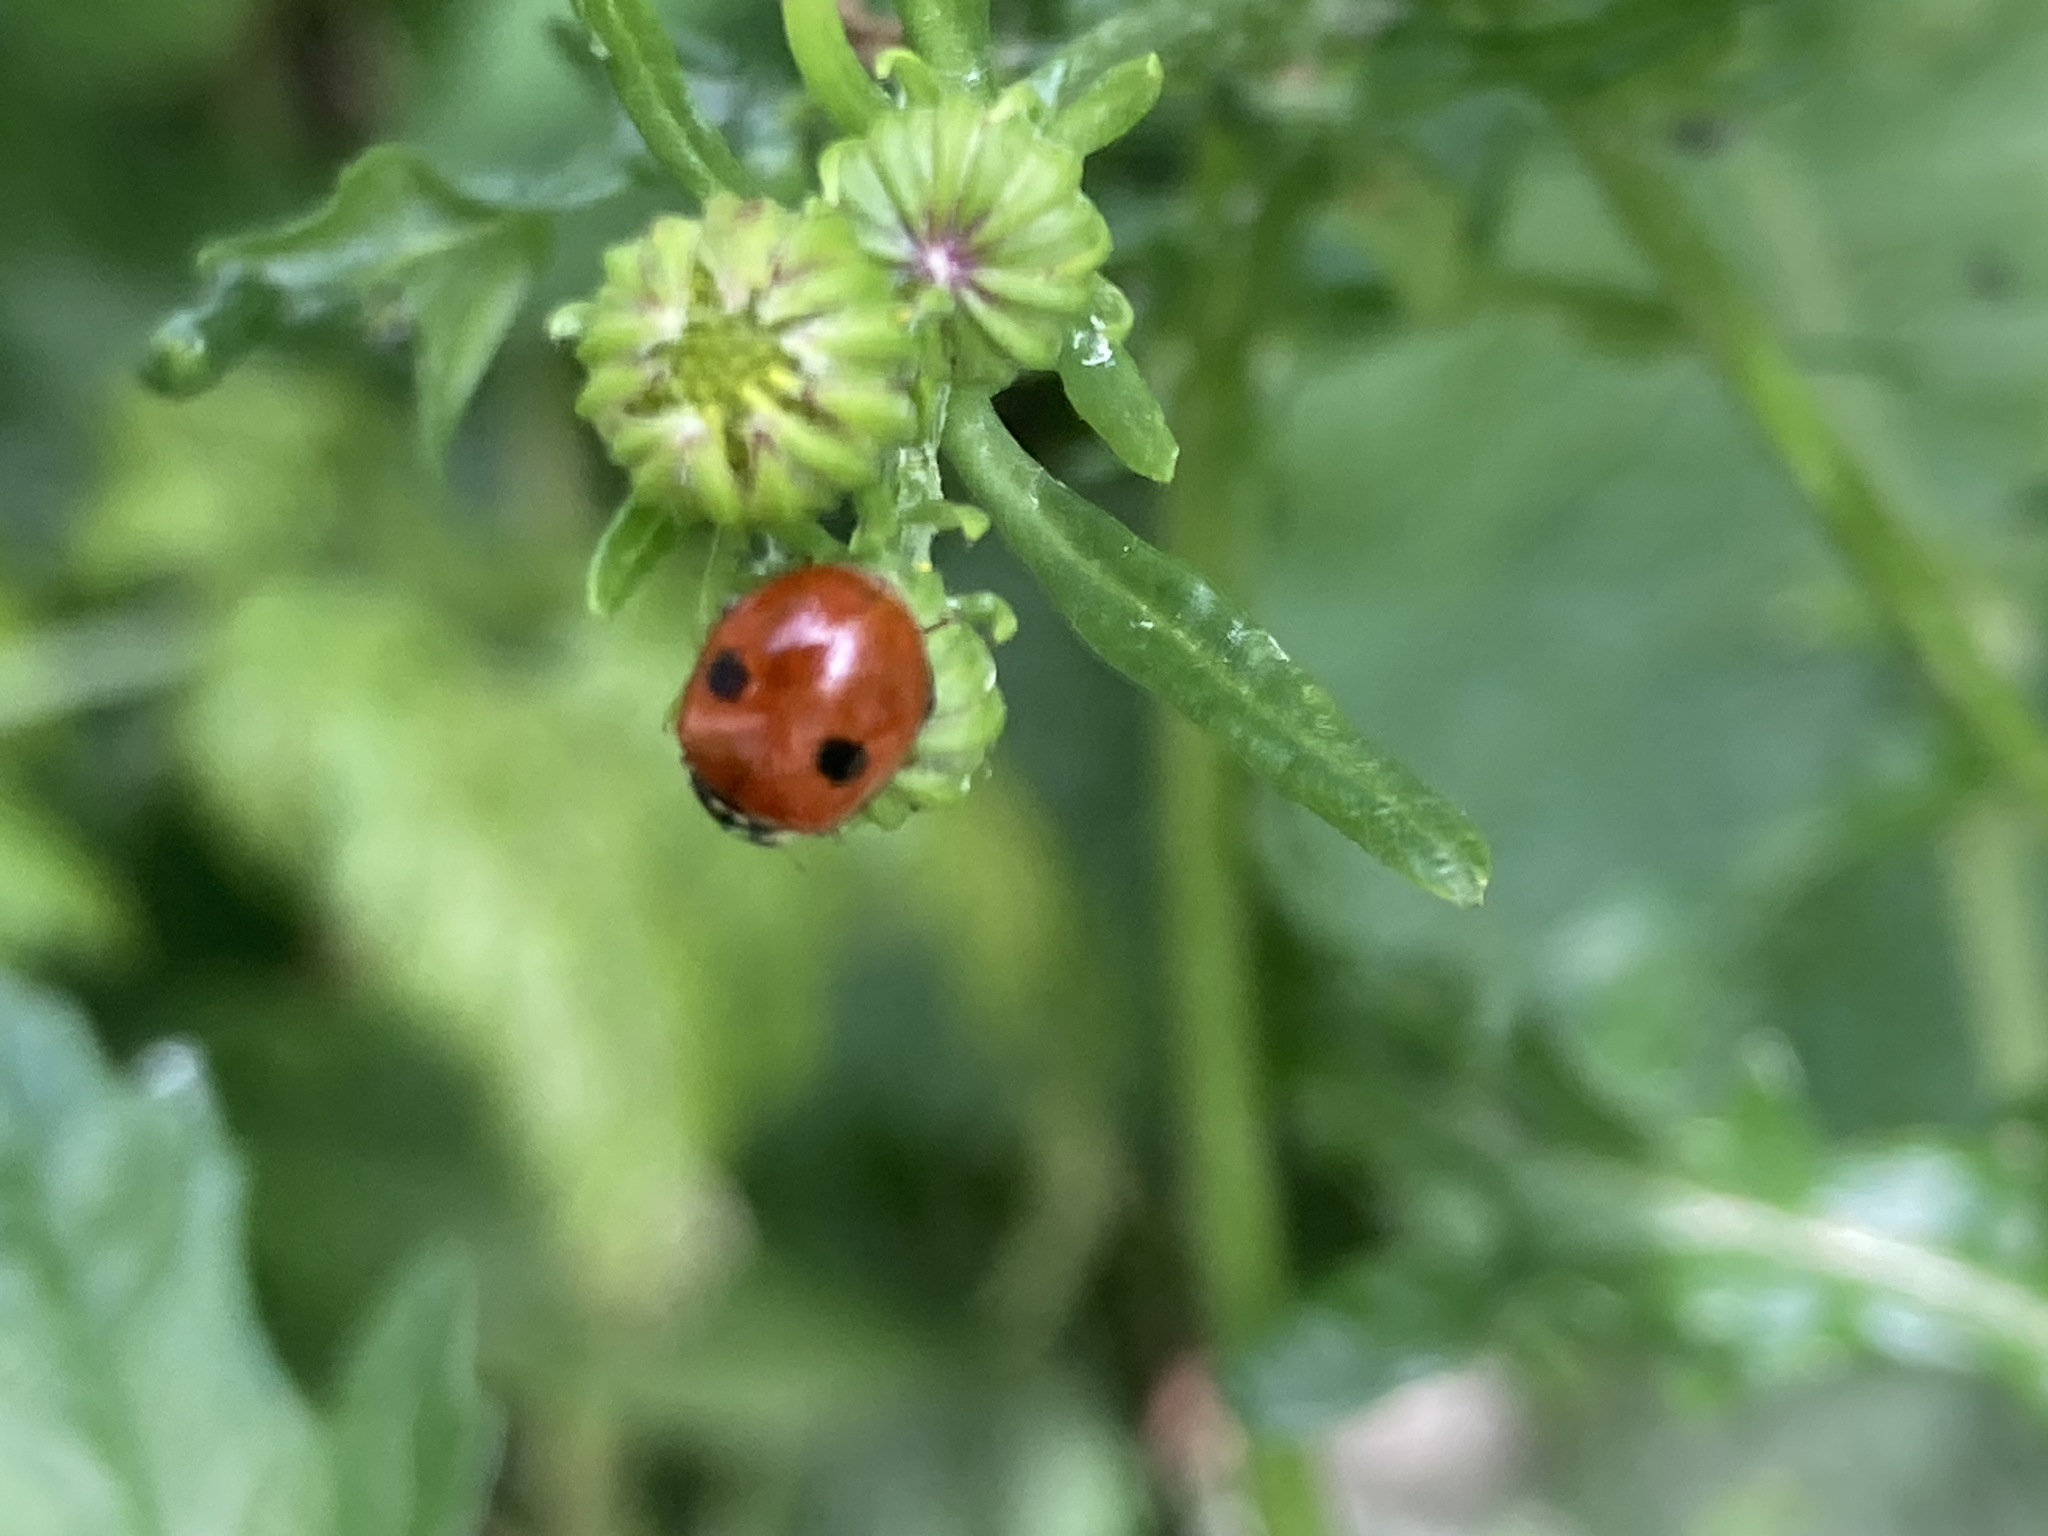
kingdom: Animalia
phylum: Arthropoda
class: Insecta
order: Coleoptera
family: Coccinellidae
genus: Adalia
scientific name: Adalia bipunctata
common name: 2-spot ladybird
